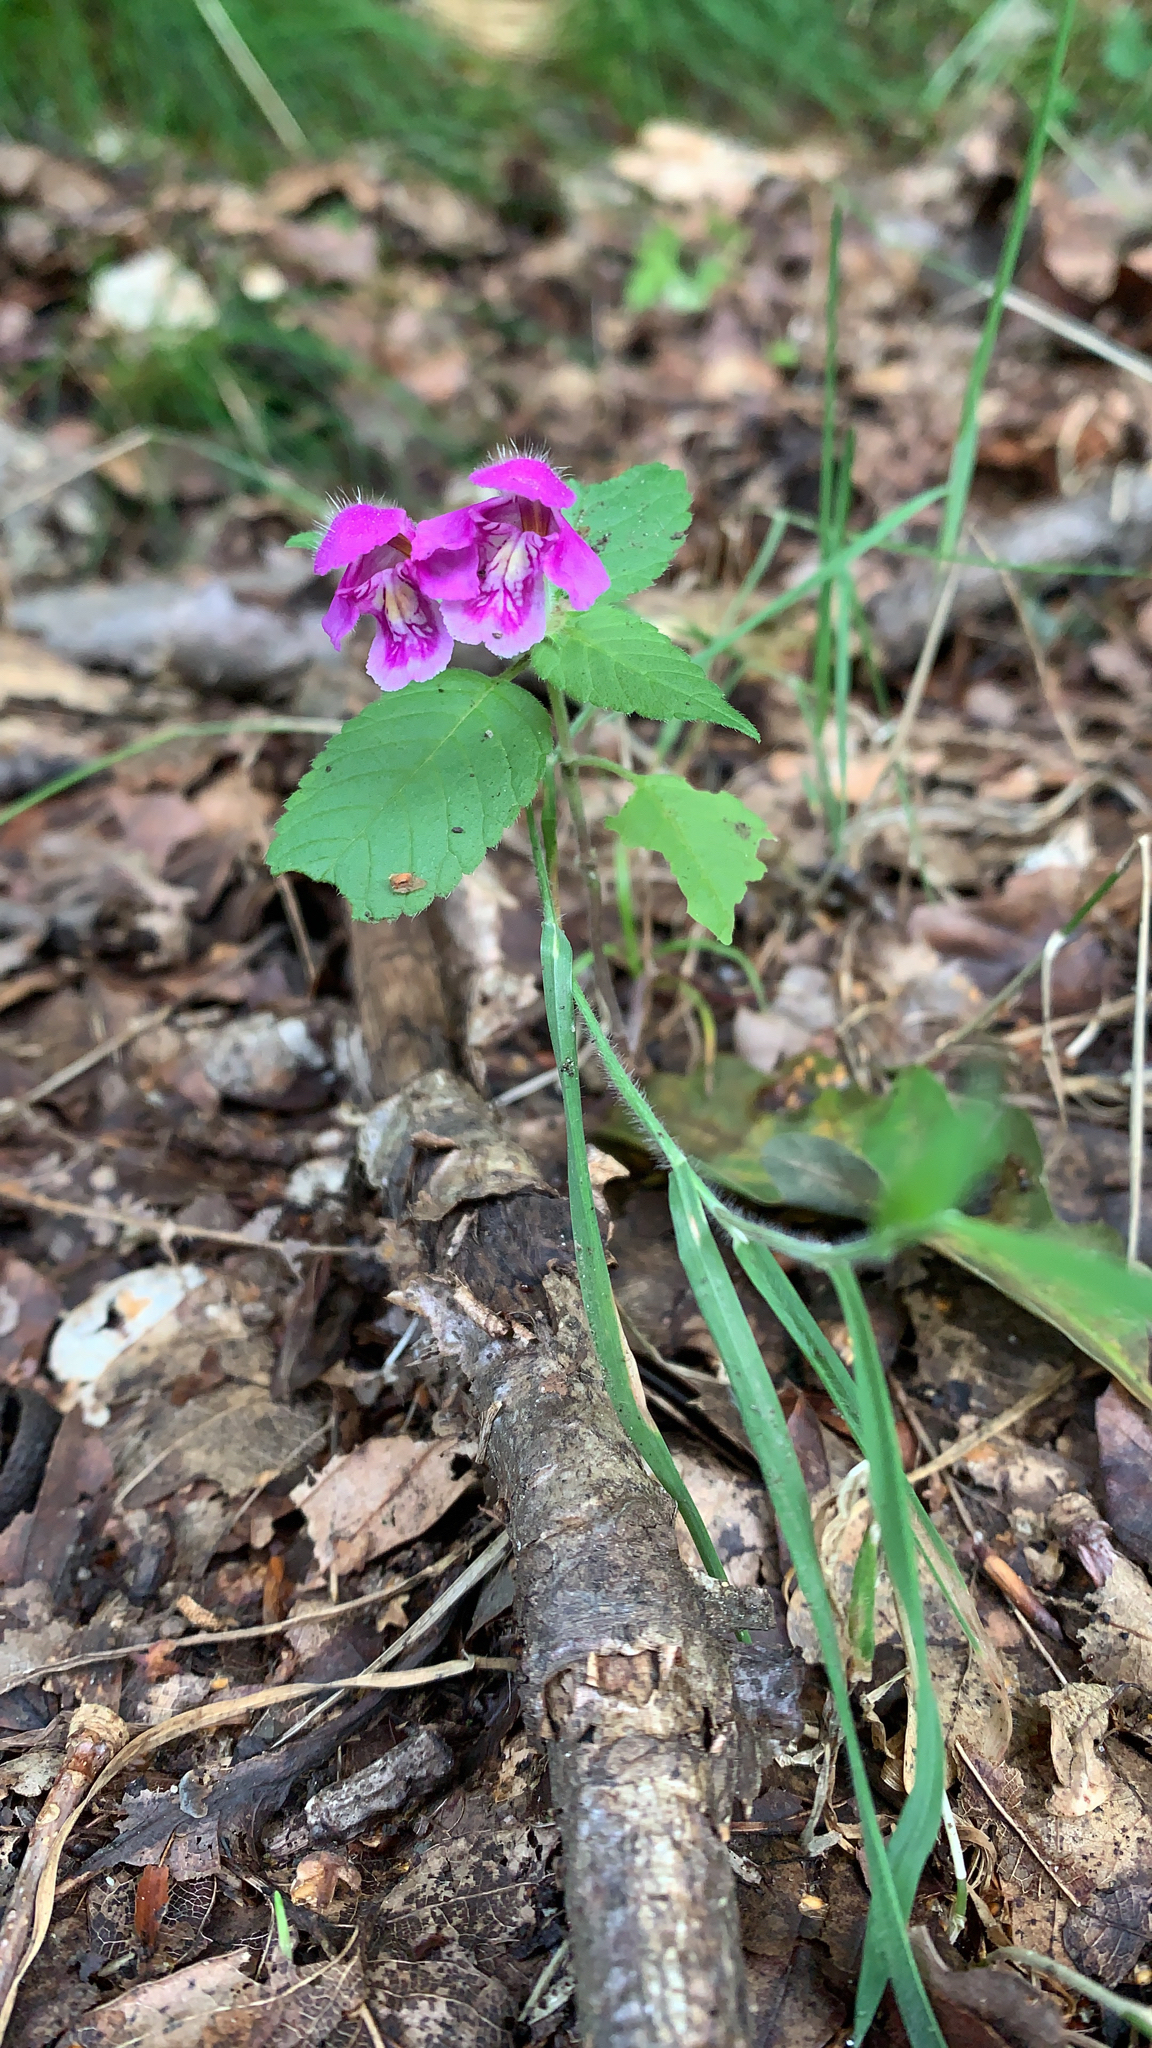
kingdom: Plantae
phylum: Tracheophyta
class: Magnoliopsida
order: Lamiales
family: Lamiaceae
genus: Galeopsis
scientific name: Galeopsis pubescens
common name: Downy hemp-nettle
